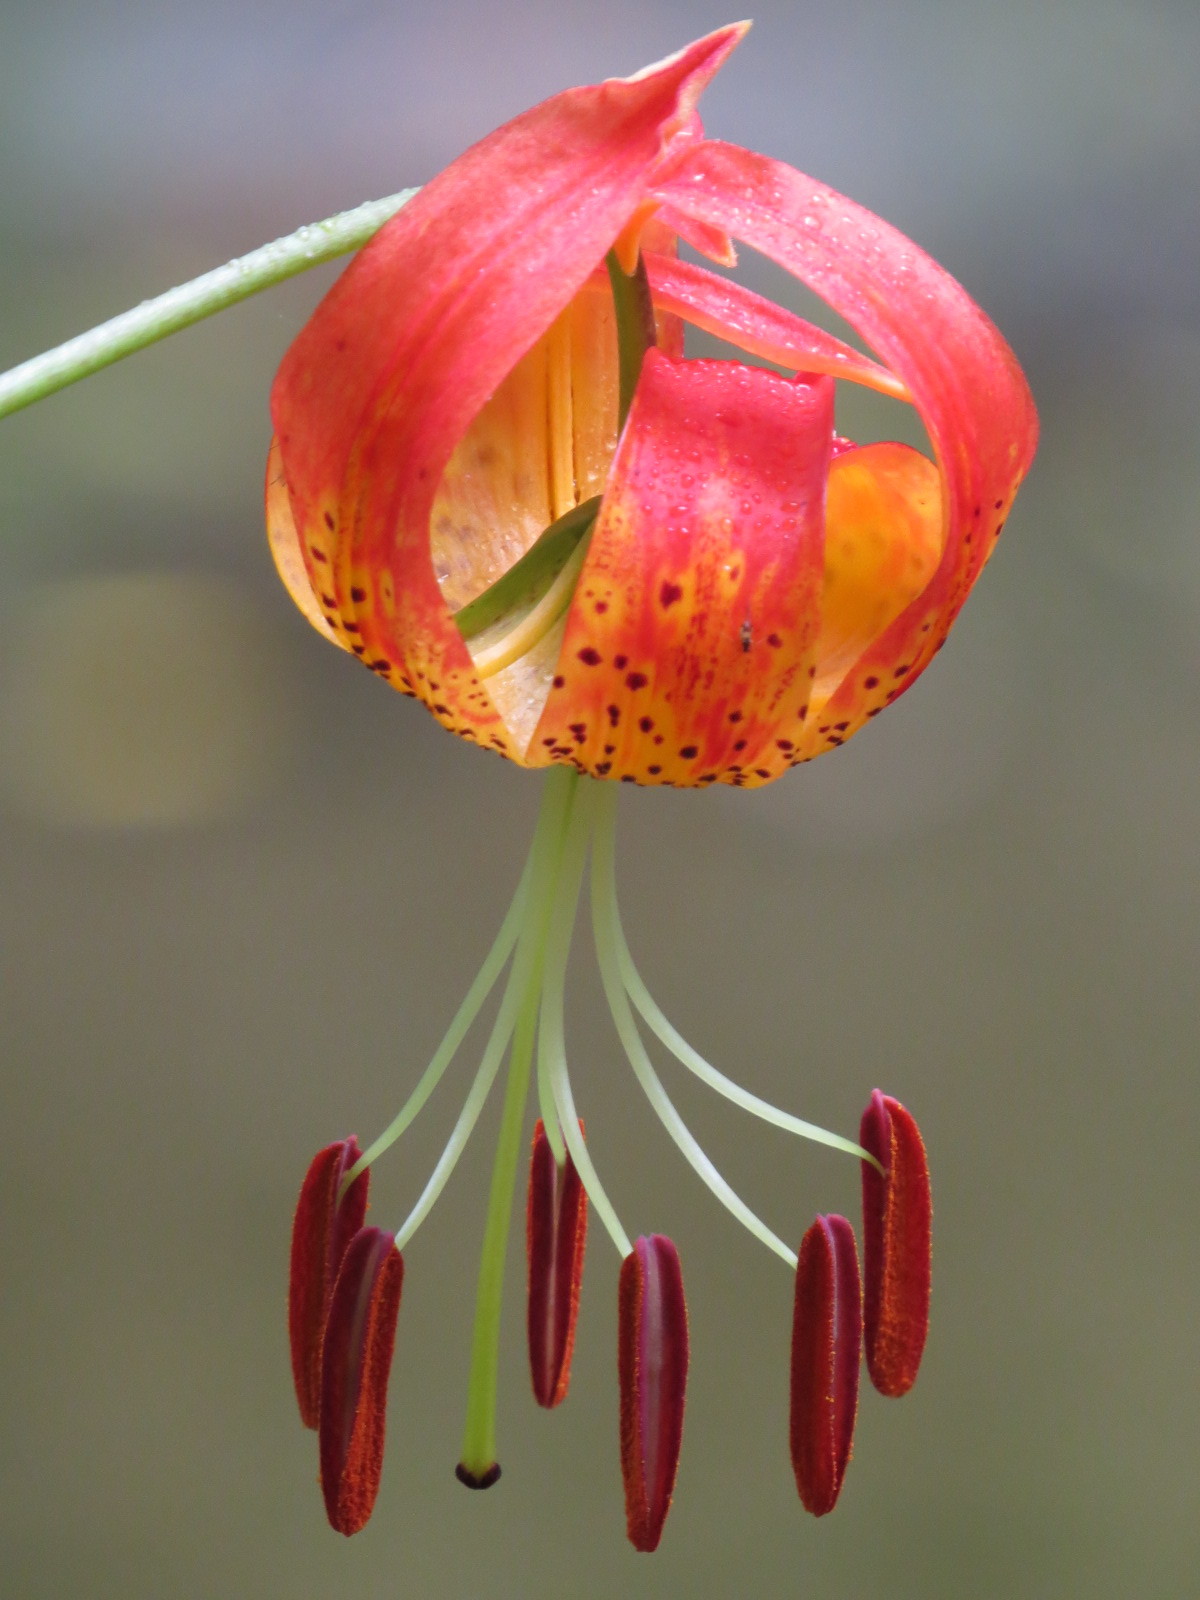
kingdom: Plantae
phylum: Tracheophyta
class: Liliopsida
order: Liliales
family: Liliaceae
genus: Lilium
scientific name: Lilium pardalinum
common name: Panther lily
